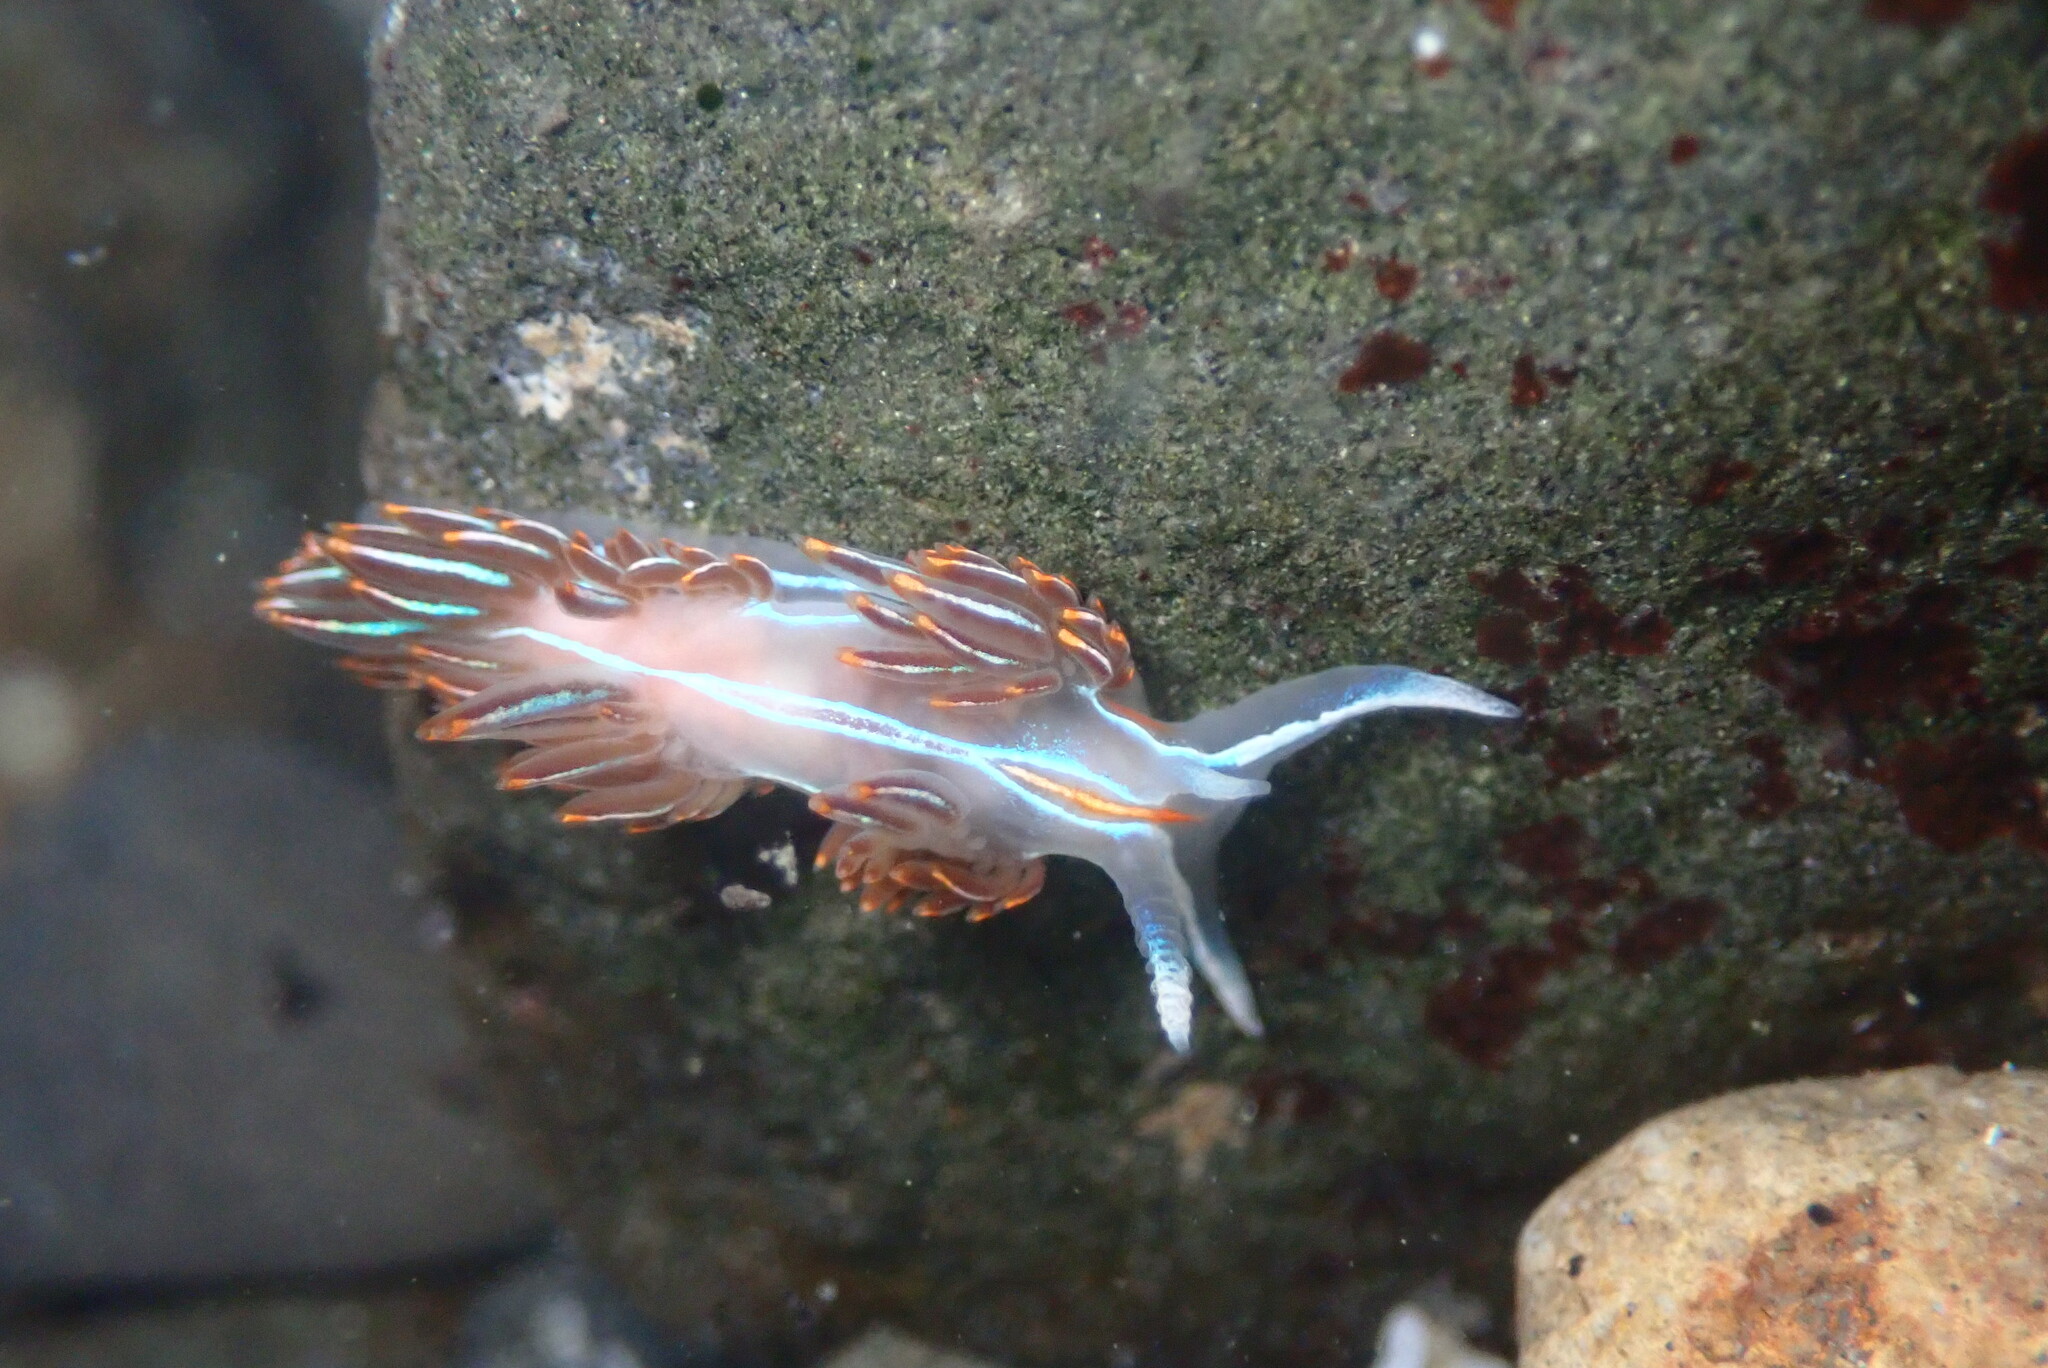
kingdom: Animalia
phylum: Mollusca
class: Gastropoda
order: Nudibranchia
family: Myrrhinidae
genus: Hermissenda
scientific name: Hermissenda crassicornis
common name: Hermissenda
